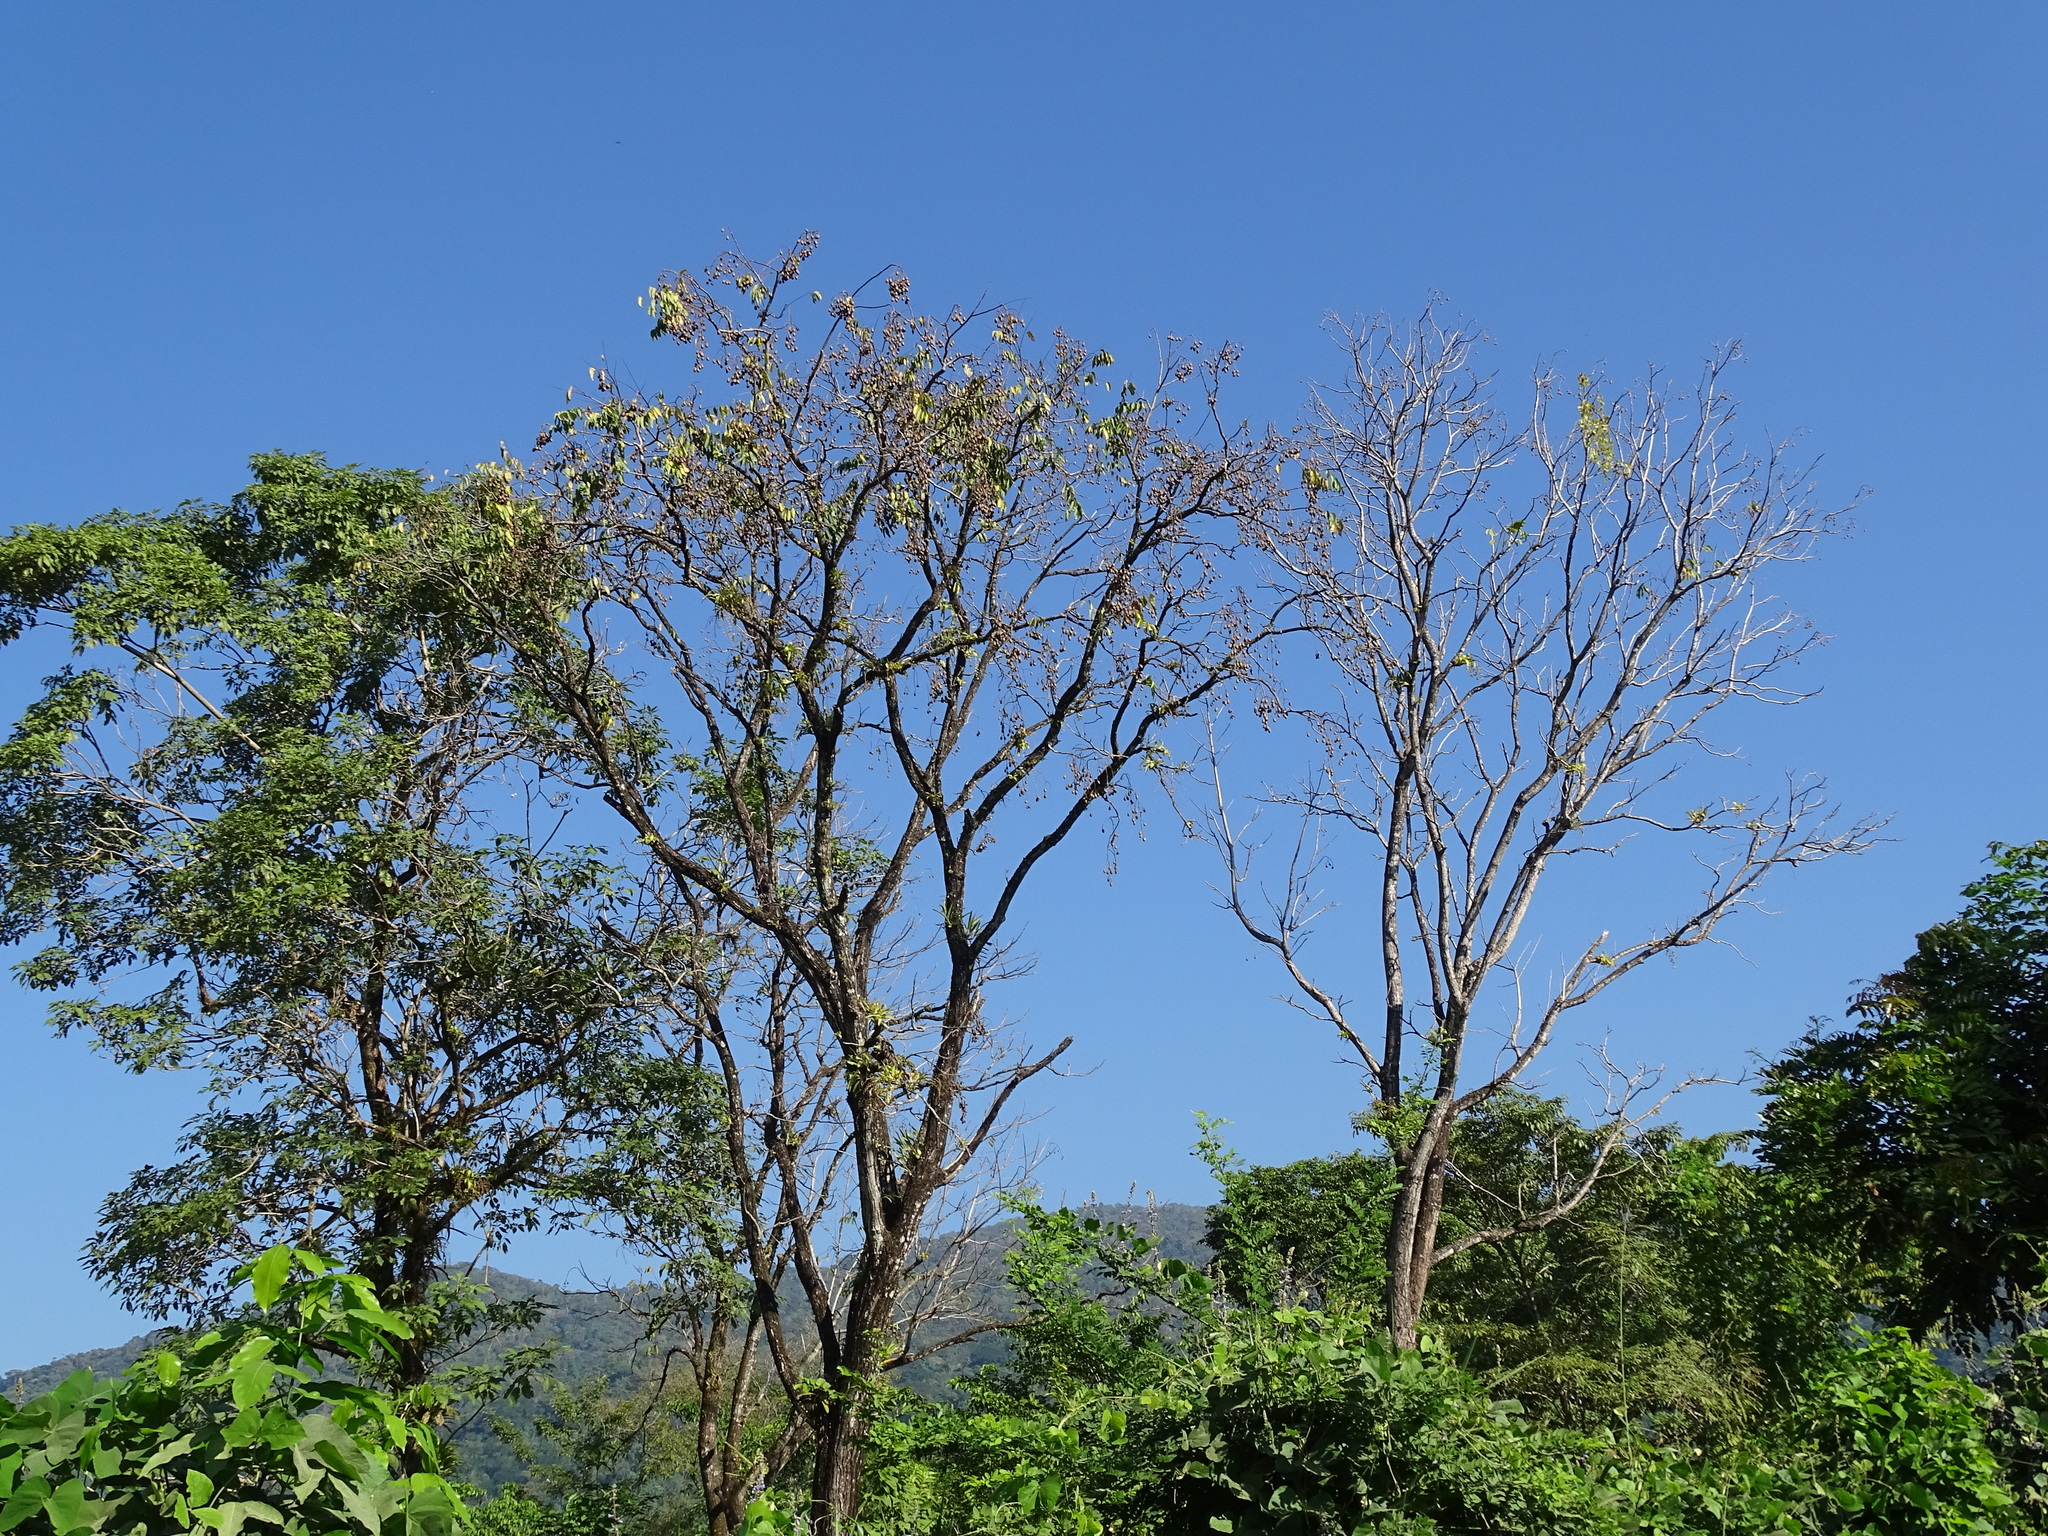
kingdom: Plantae
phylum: Tracheophyta
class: Magnoliopsida
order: Sapindales
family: Meliaceae
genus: Cedrela
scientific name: Cedrela odorata
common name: Red cedar
